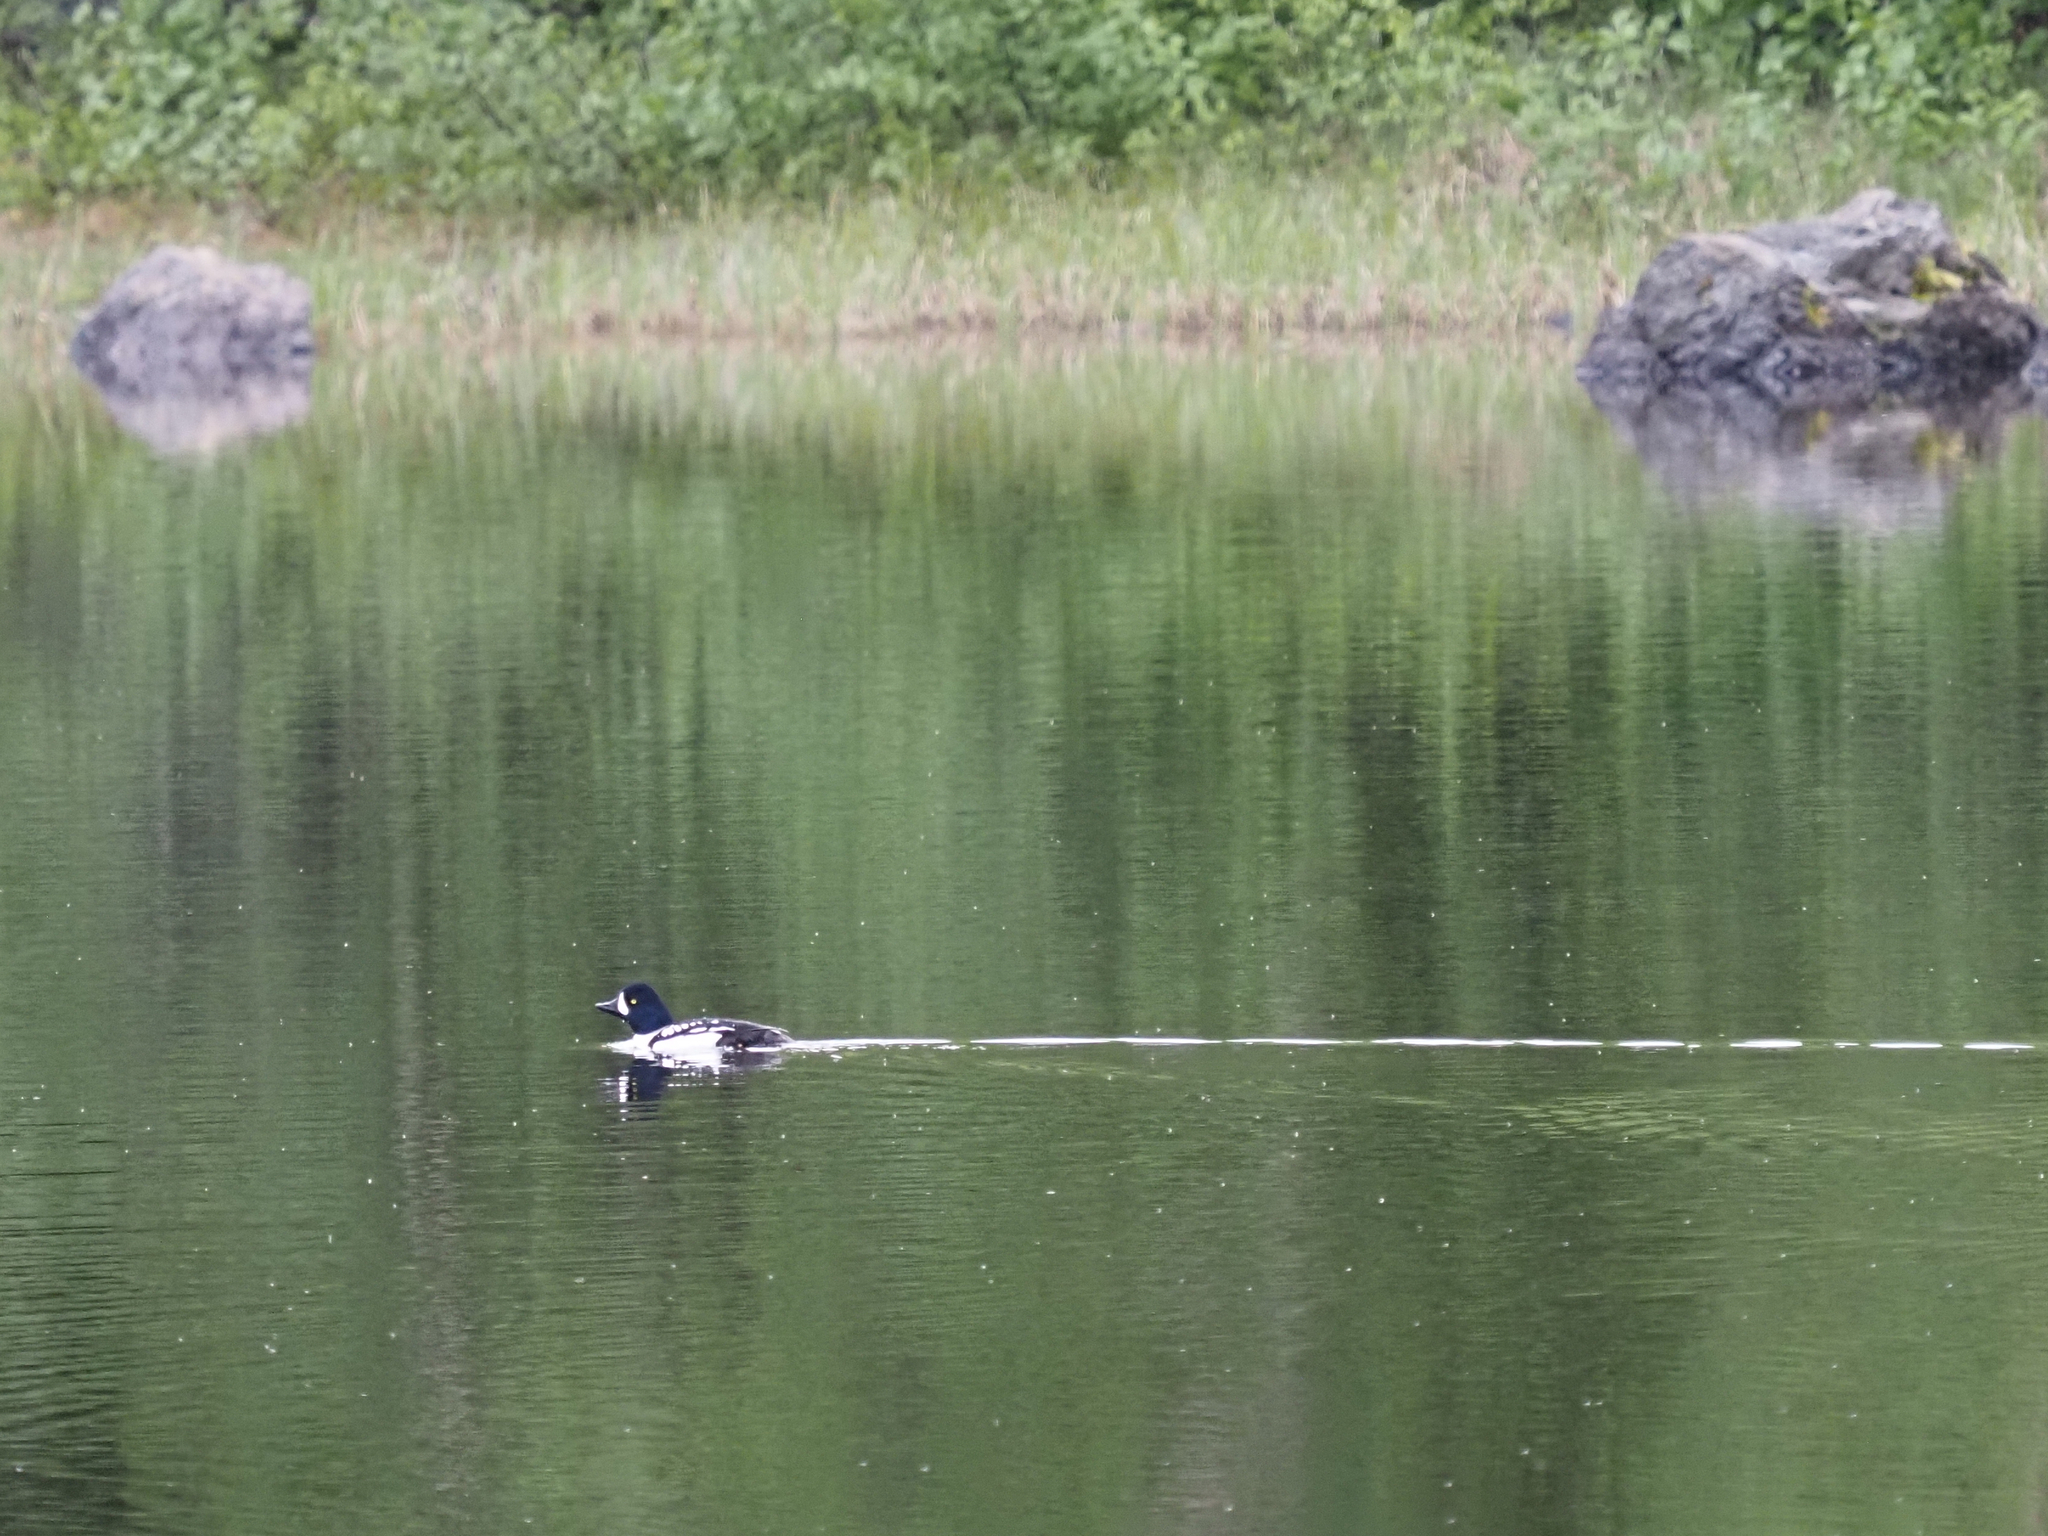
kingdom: Animalia
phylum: Chordata
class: Aves
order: Anseriformes
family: Anatidae
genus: Bucephala
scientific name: Bucephala islandica
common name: Barrow's goldeneye
